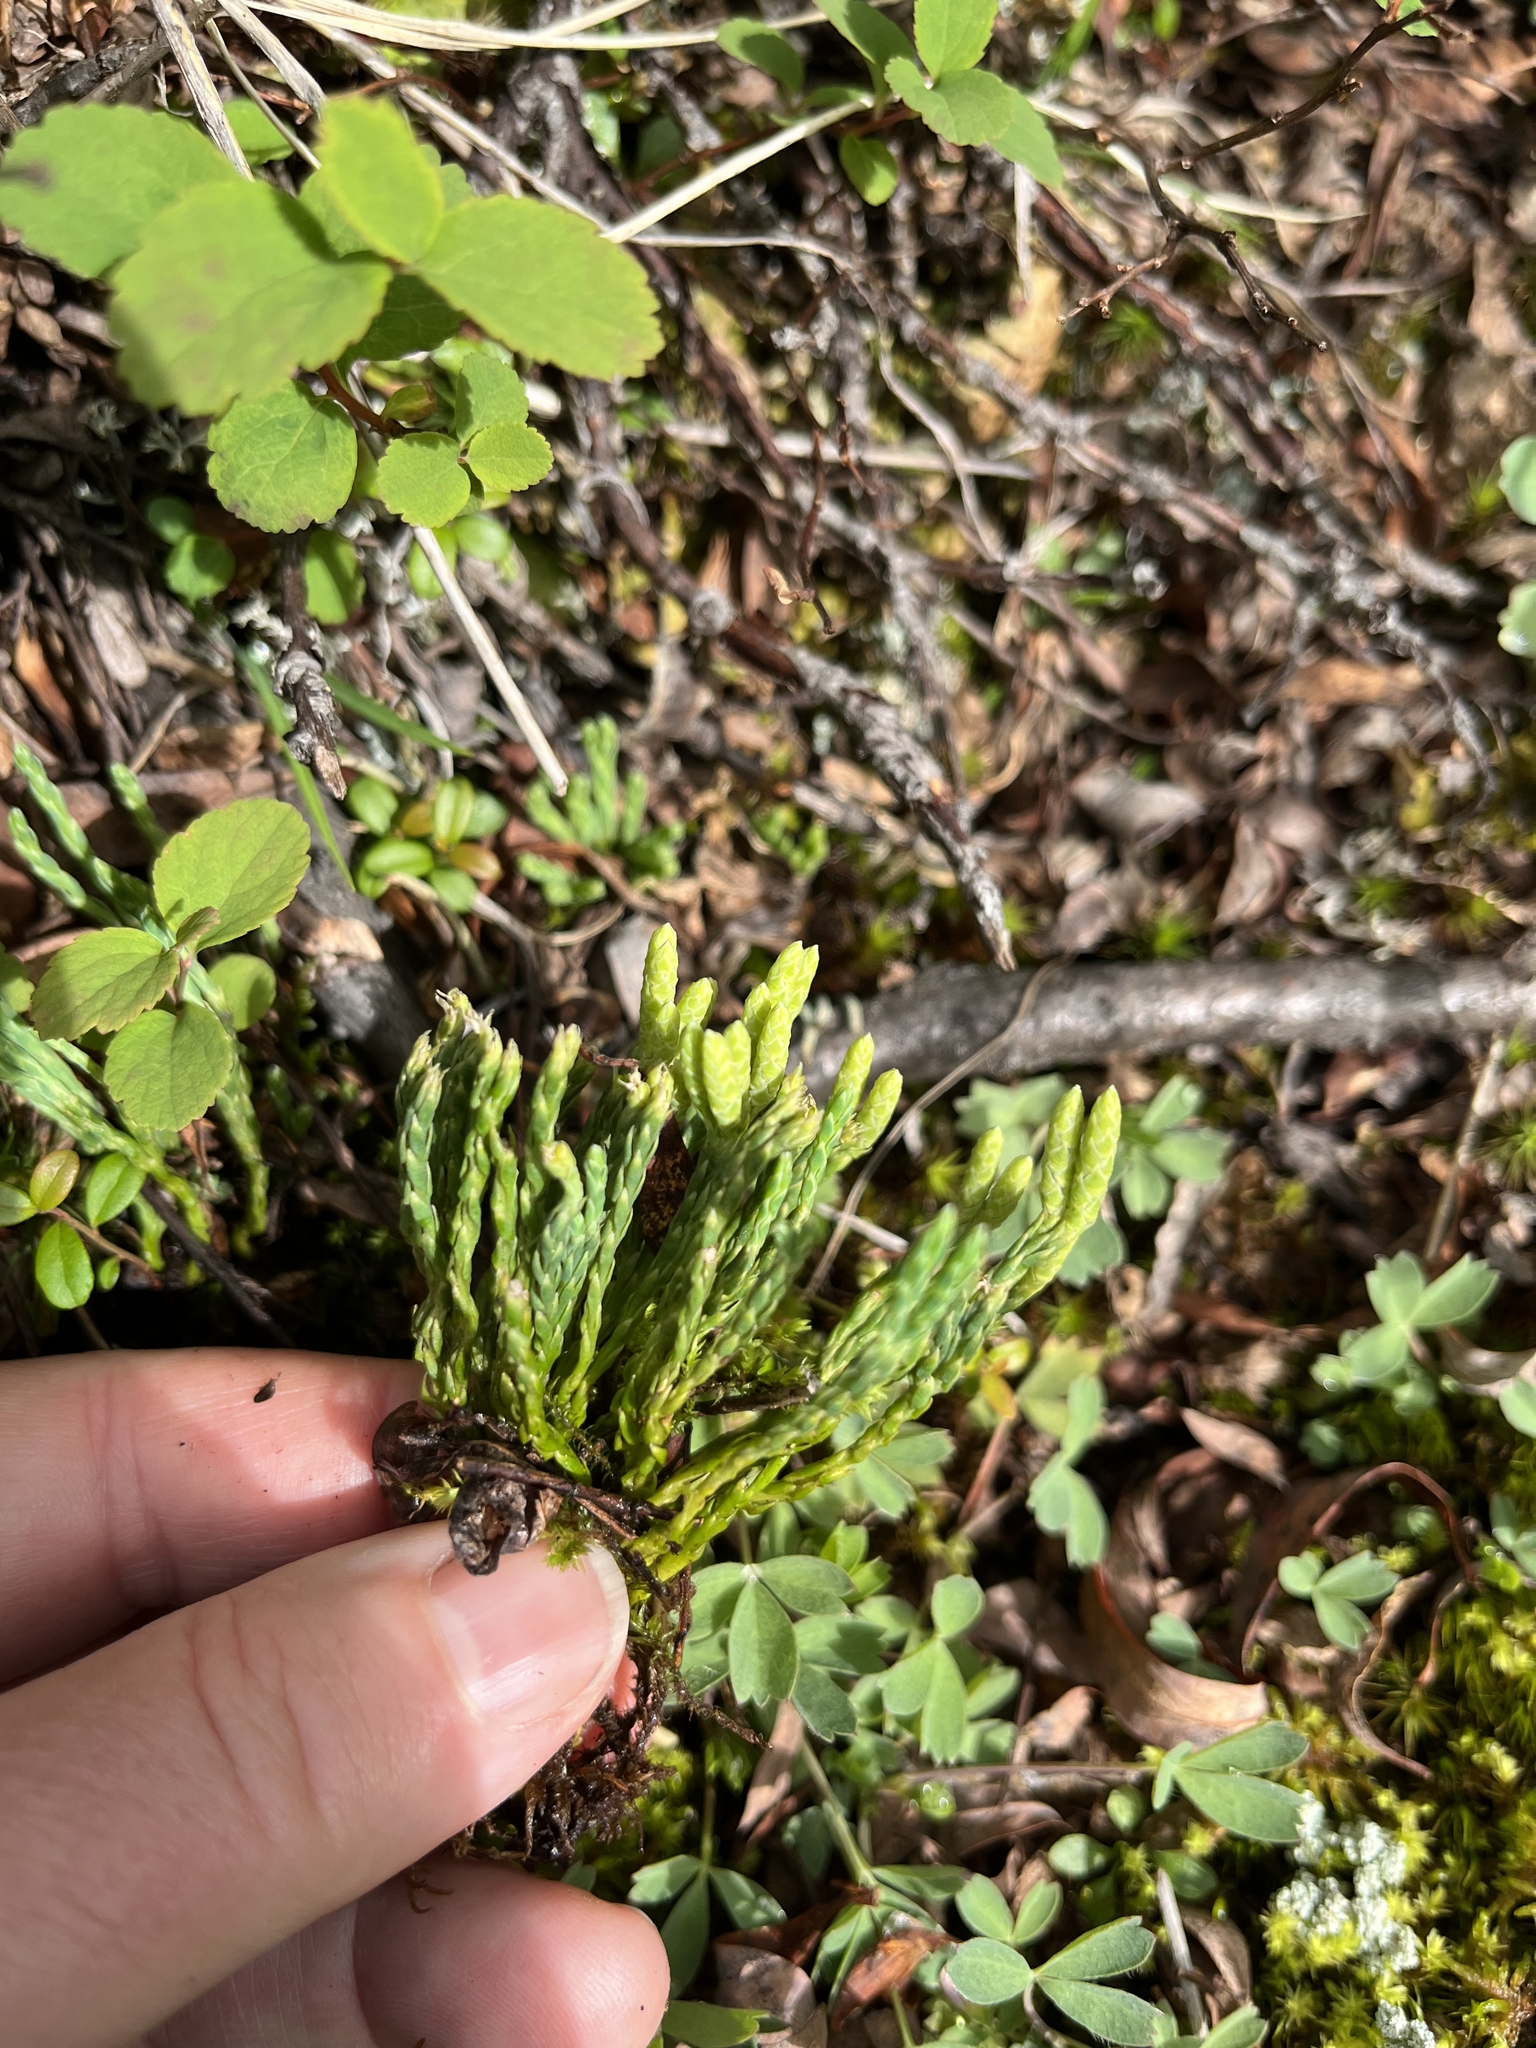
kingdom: Plantae
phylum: Tracheophyta
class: Lycopodiopsida
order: Lycopodiales
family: Lycopodiaceae
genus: Diphasiastrum
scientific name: Diphasiastrum alpinum
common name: Alpine clubmoss
